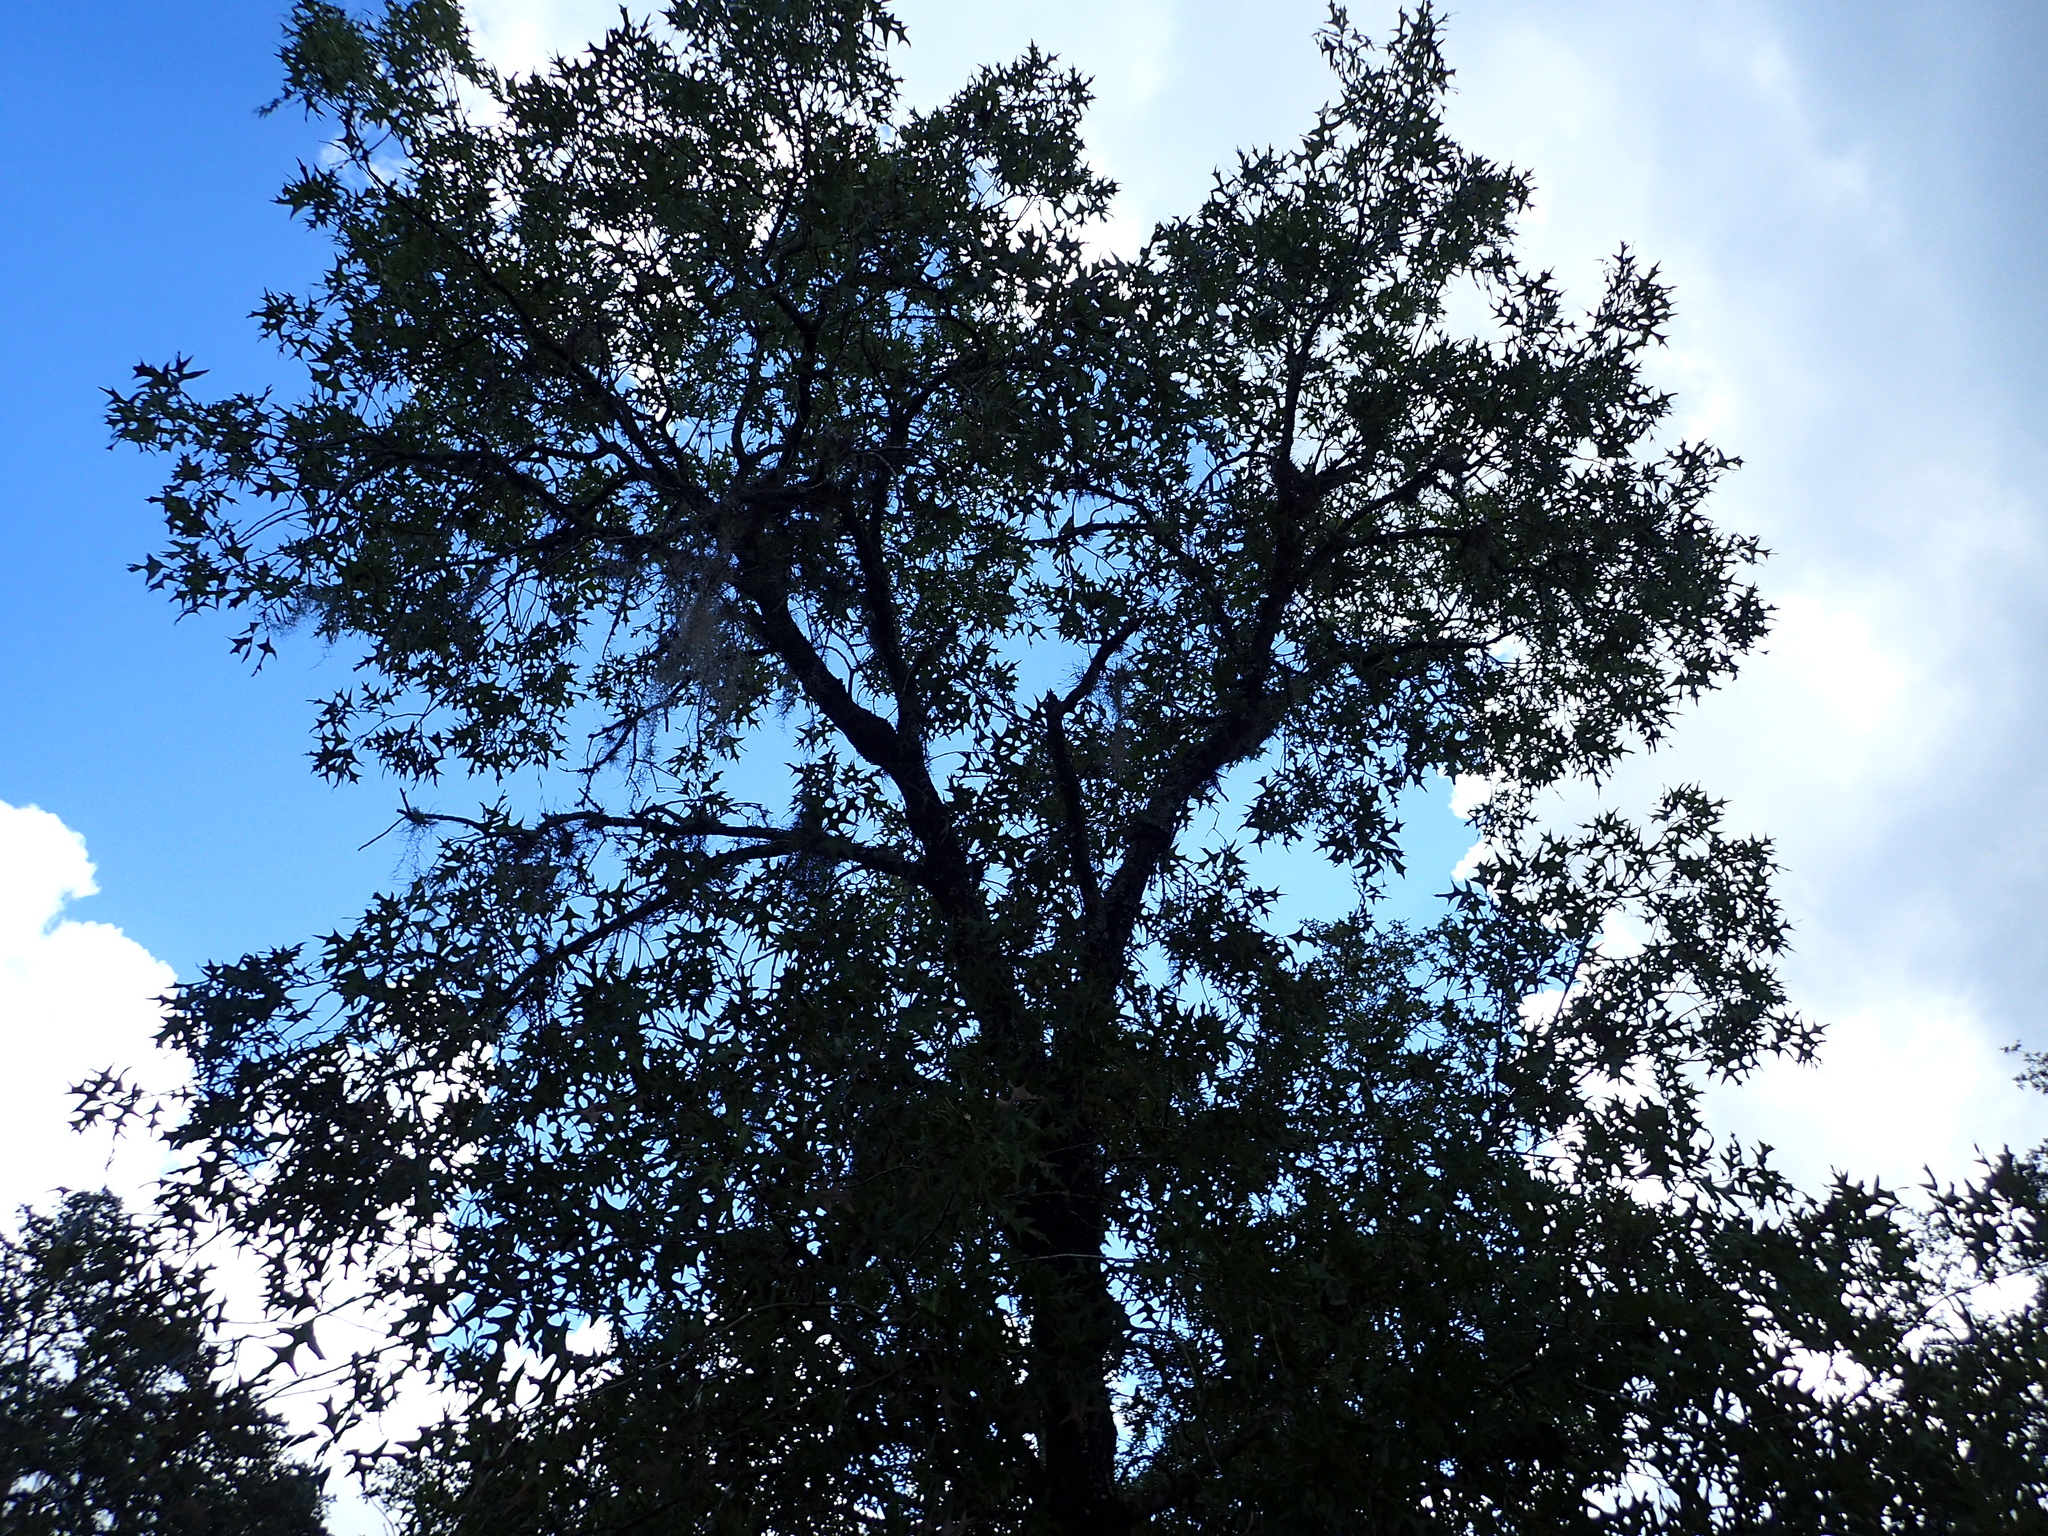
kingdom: Plantae
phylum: Tracheophyta
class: Magnoliopsida
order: Fagales
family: Fagaceae
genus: Quercus
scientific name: Quercus laevis
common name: Turkey oak
